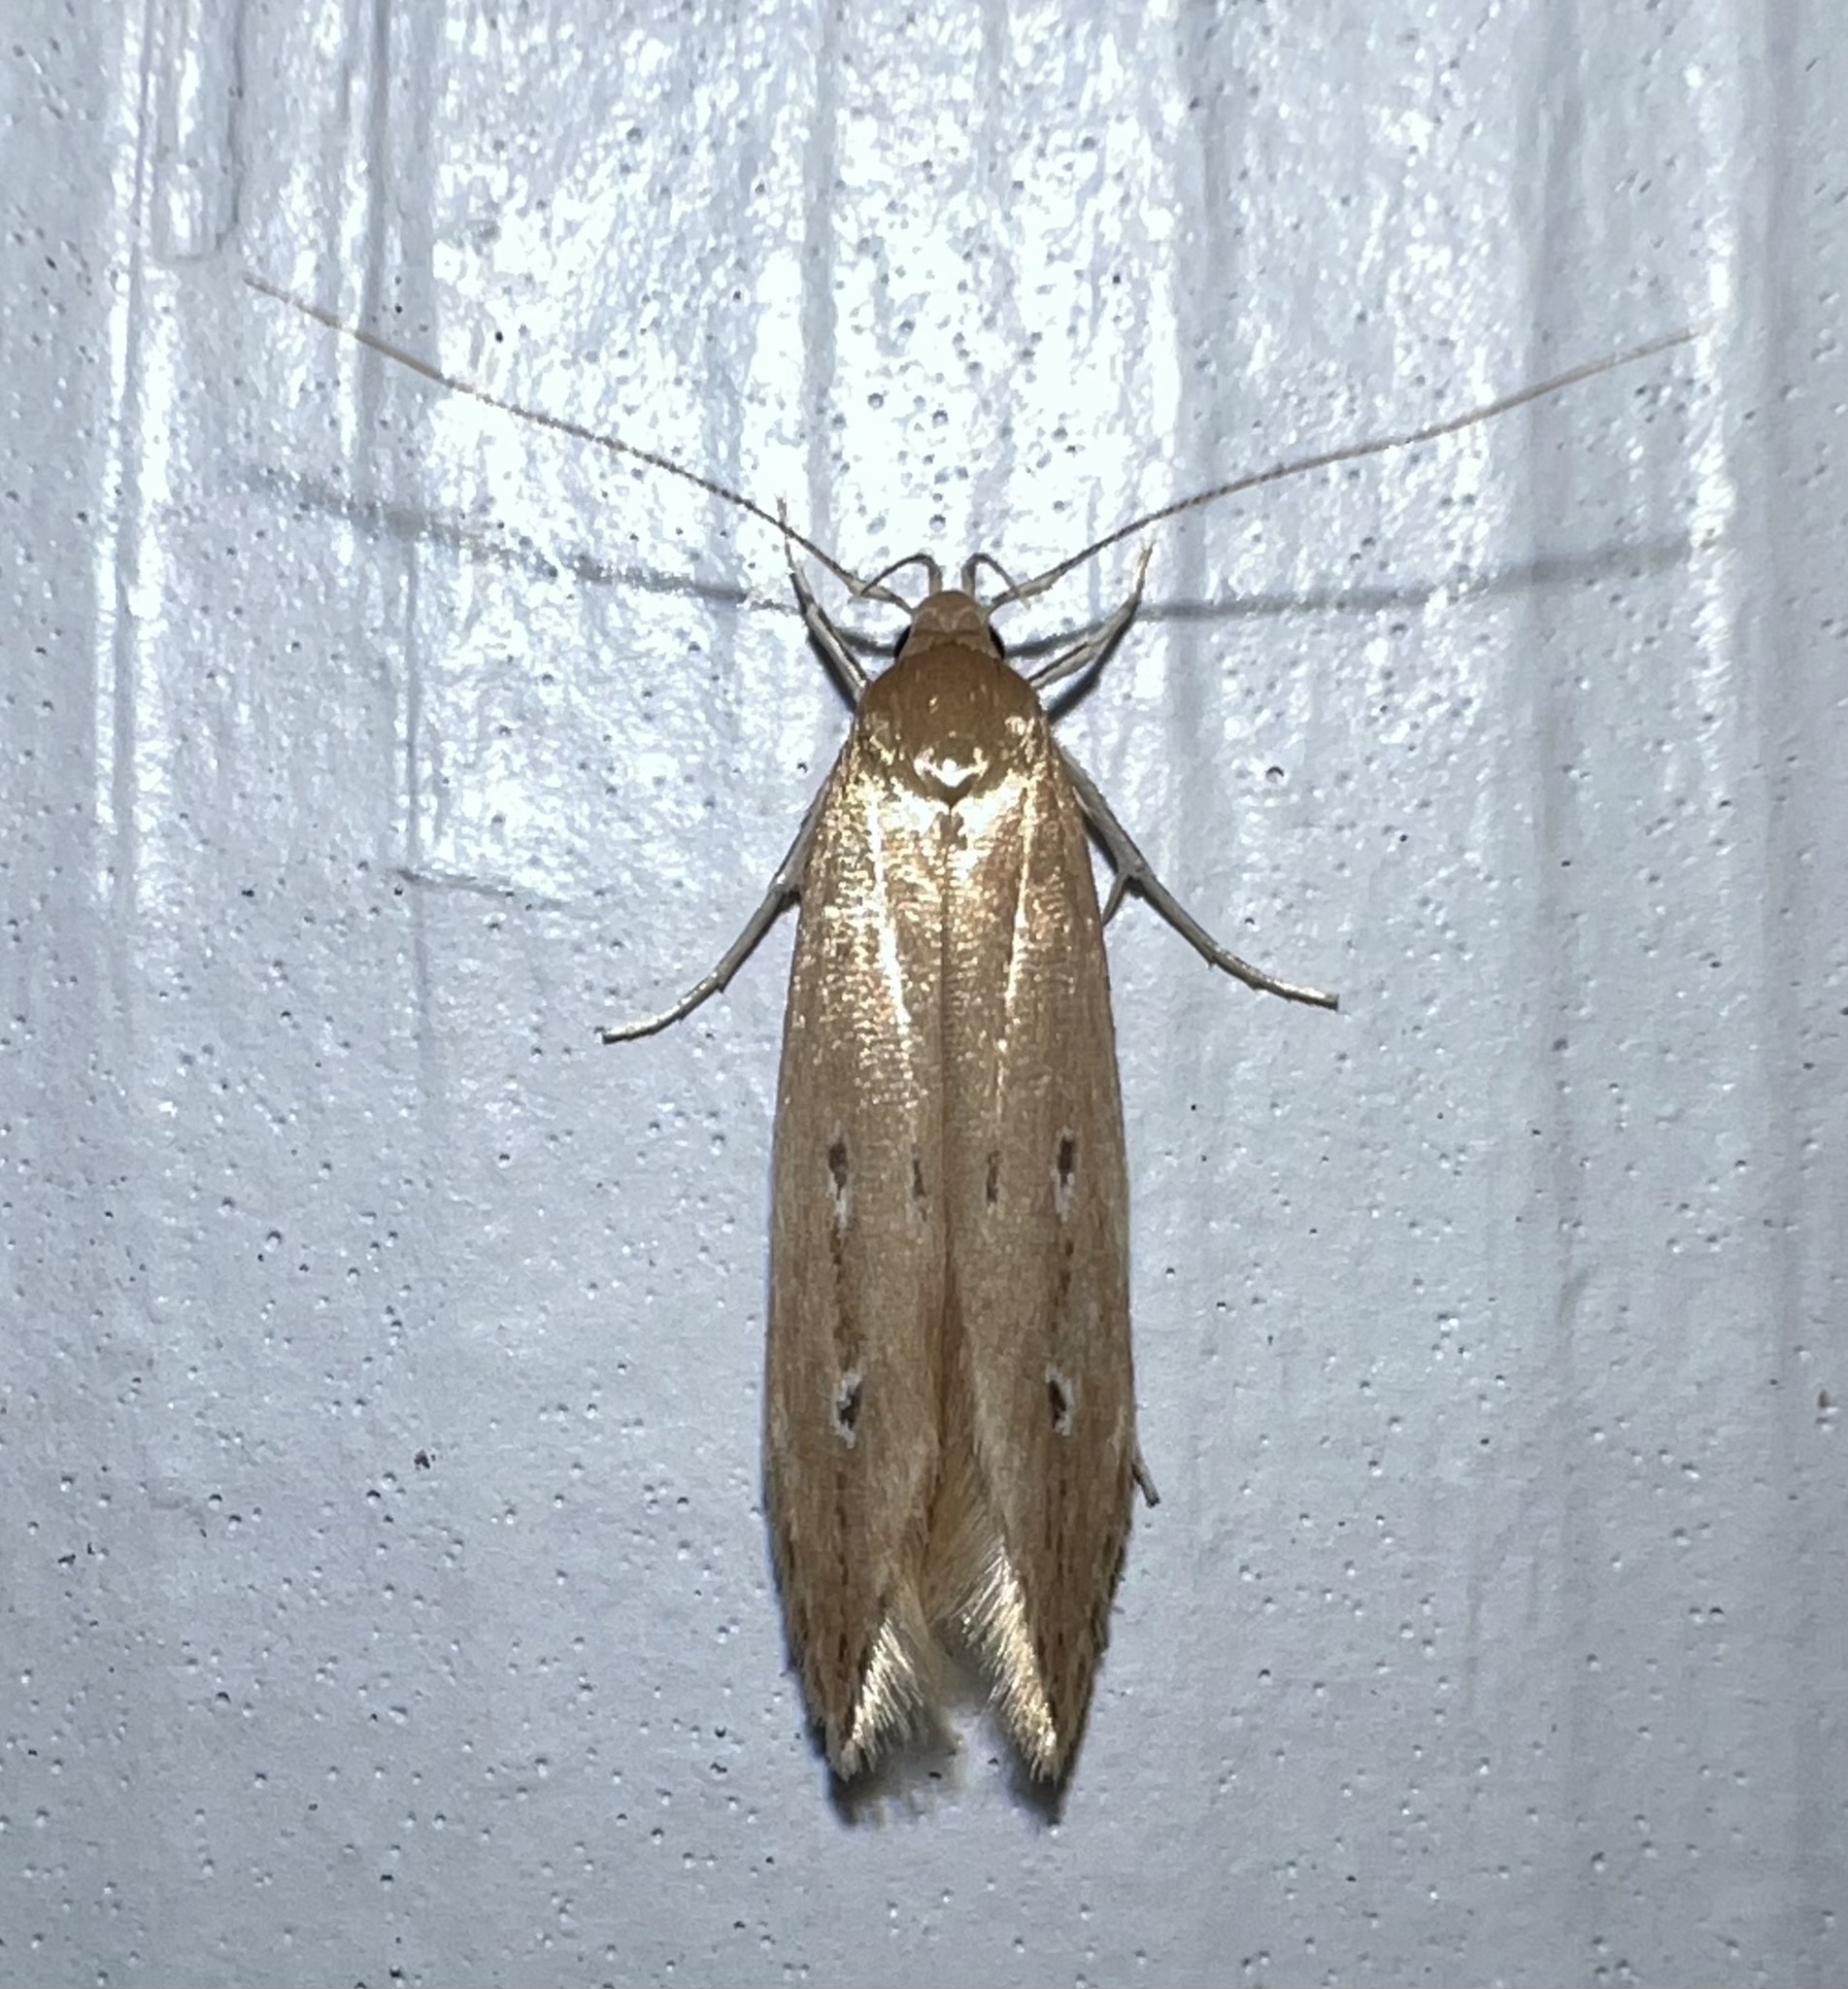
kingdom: Animalia
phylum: Arthropoda
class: Insecta
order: Lepidoptera
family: Cosmopterigidae
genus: Limnaecia
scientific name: Limnaecia phragmitella
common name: Bulrush cosmet
